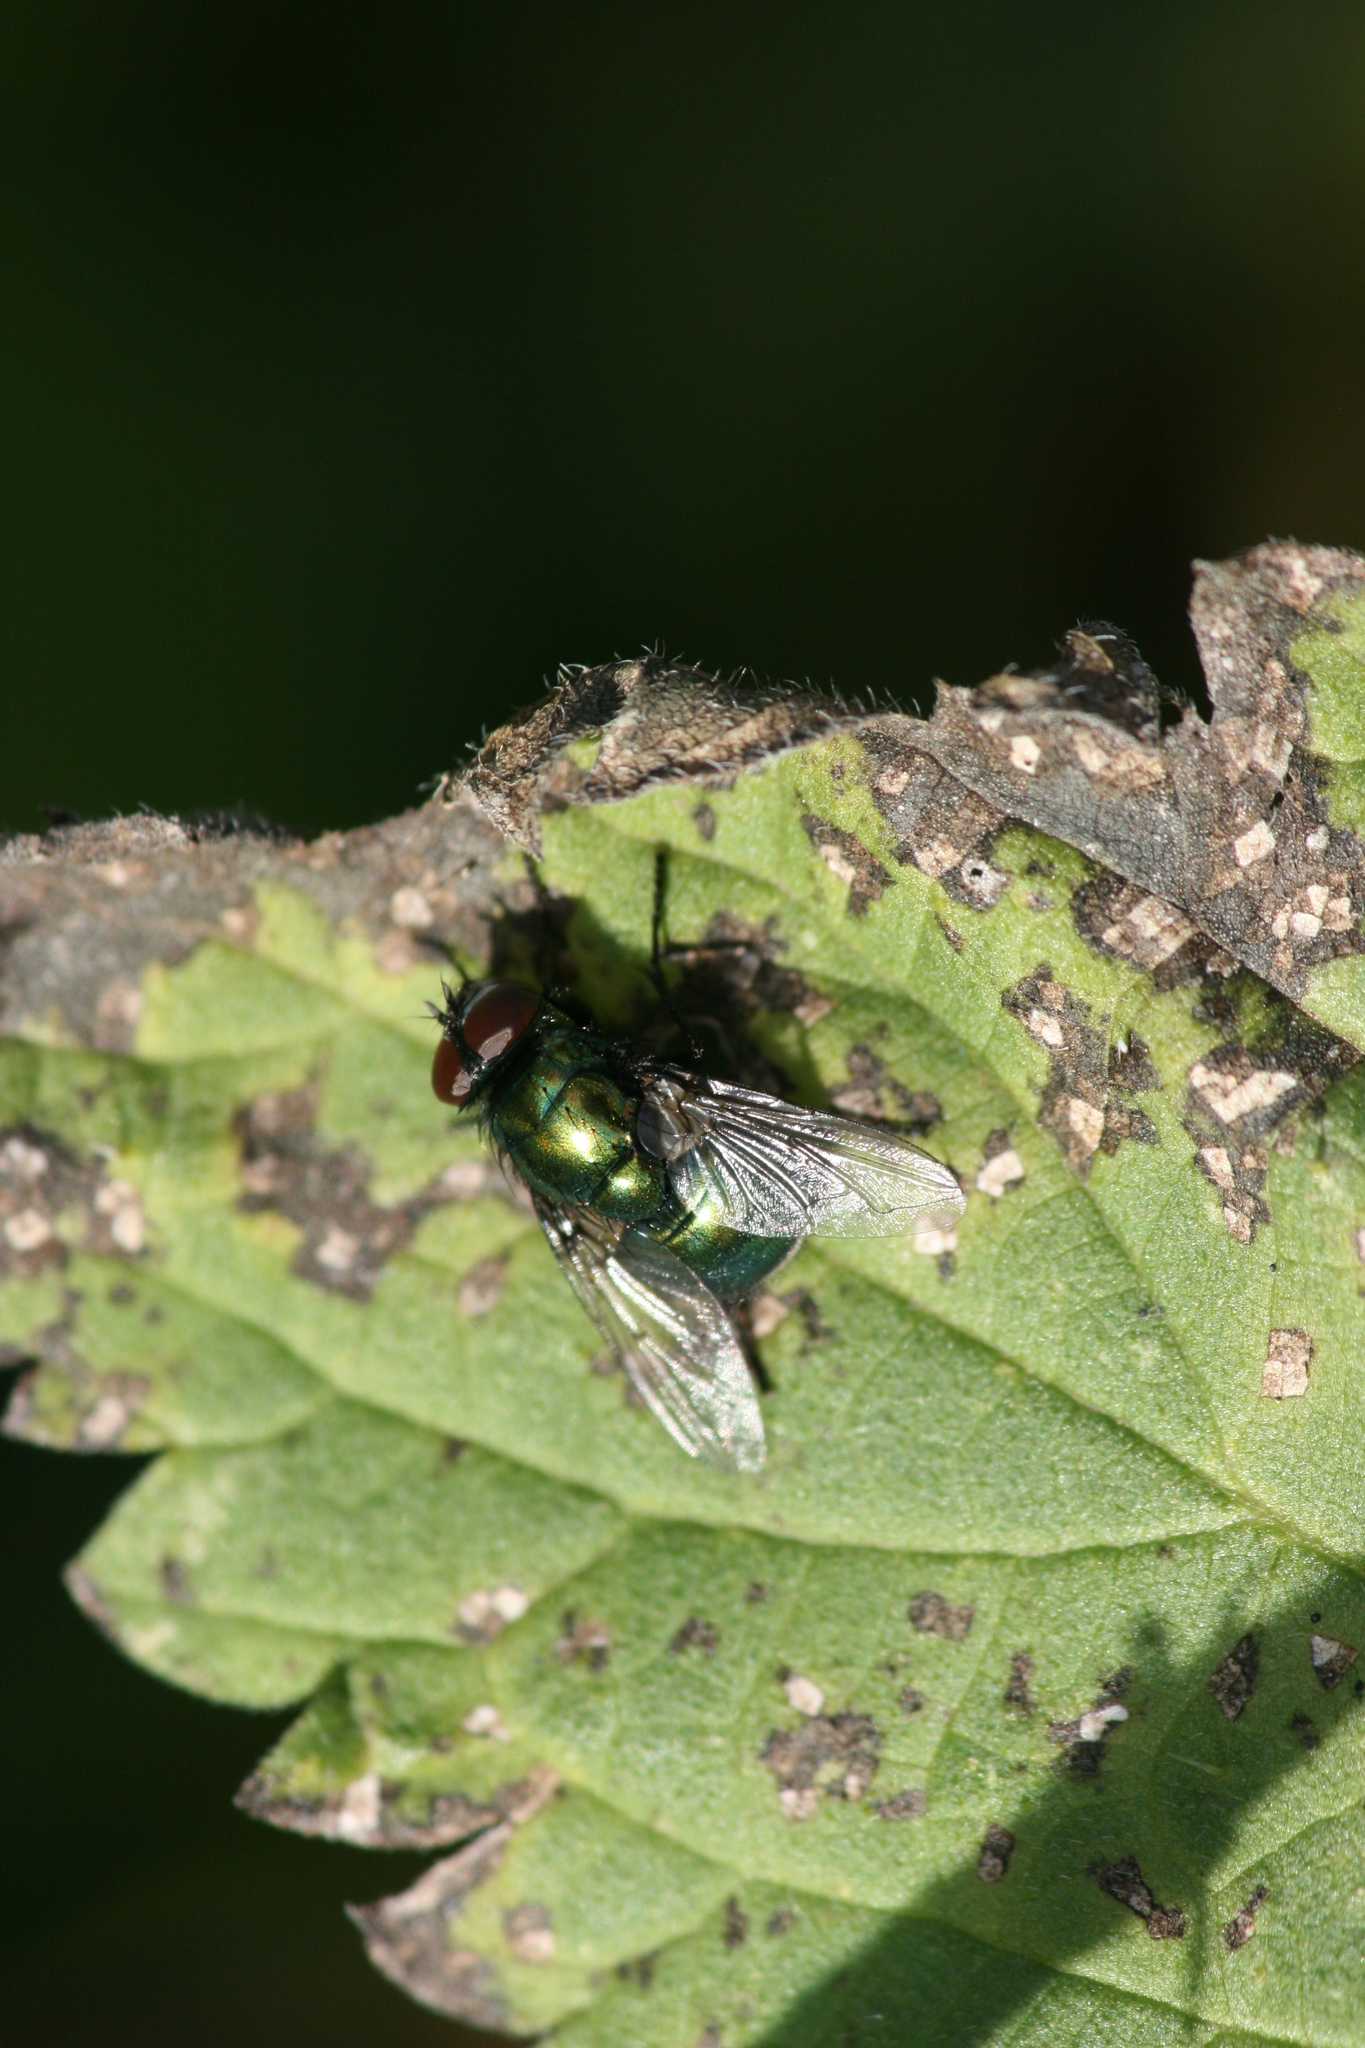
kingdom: Animalia
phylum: Arthropoda
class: Insecta
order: Diptera
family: Muscidae
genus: Neomyia
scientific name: Neomyia viridescens
